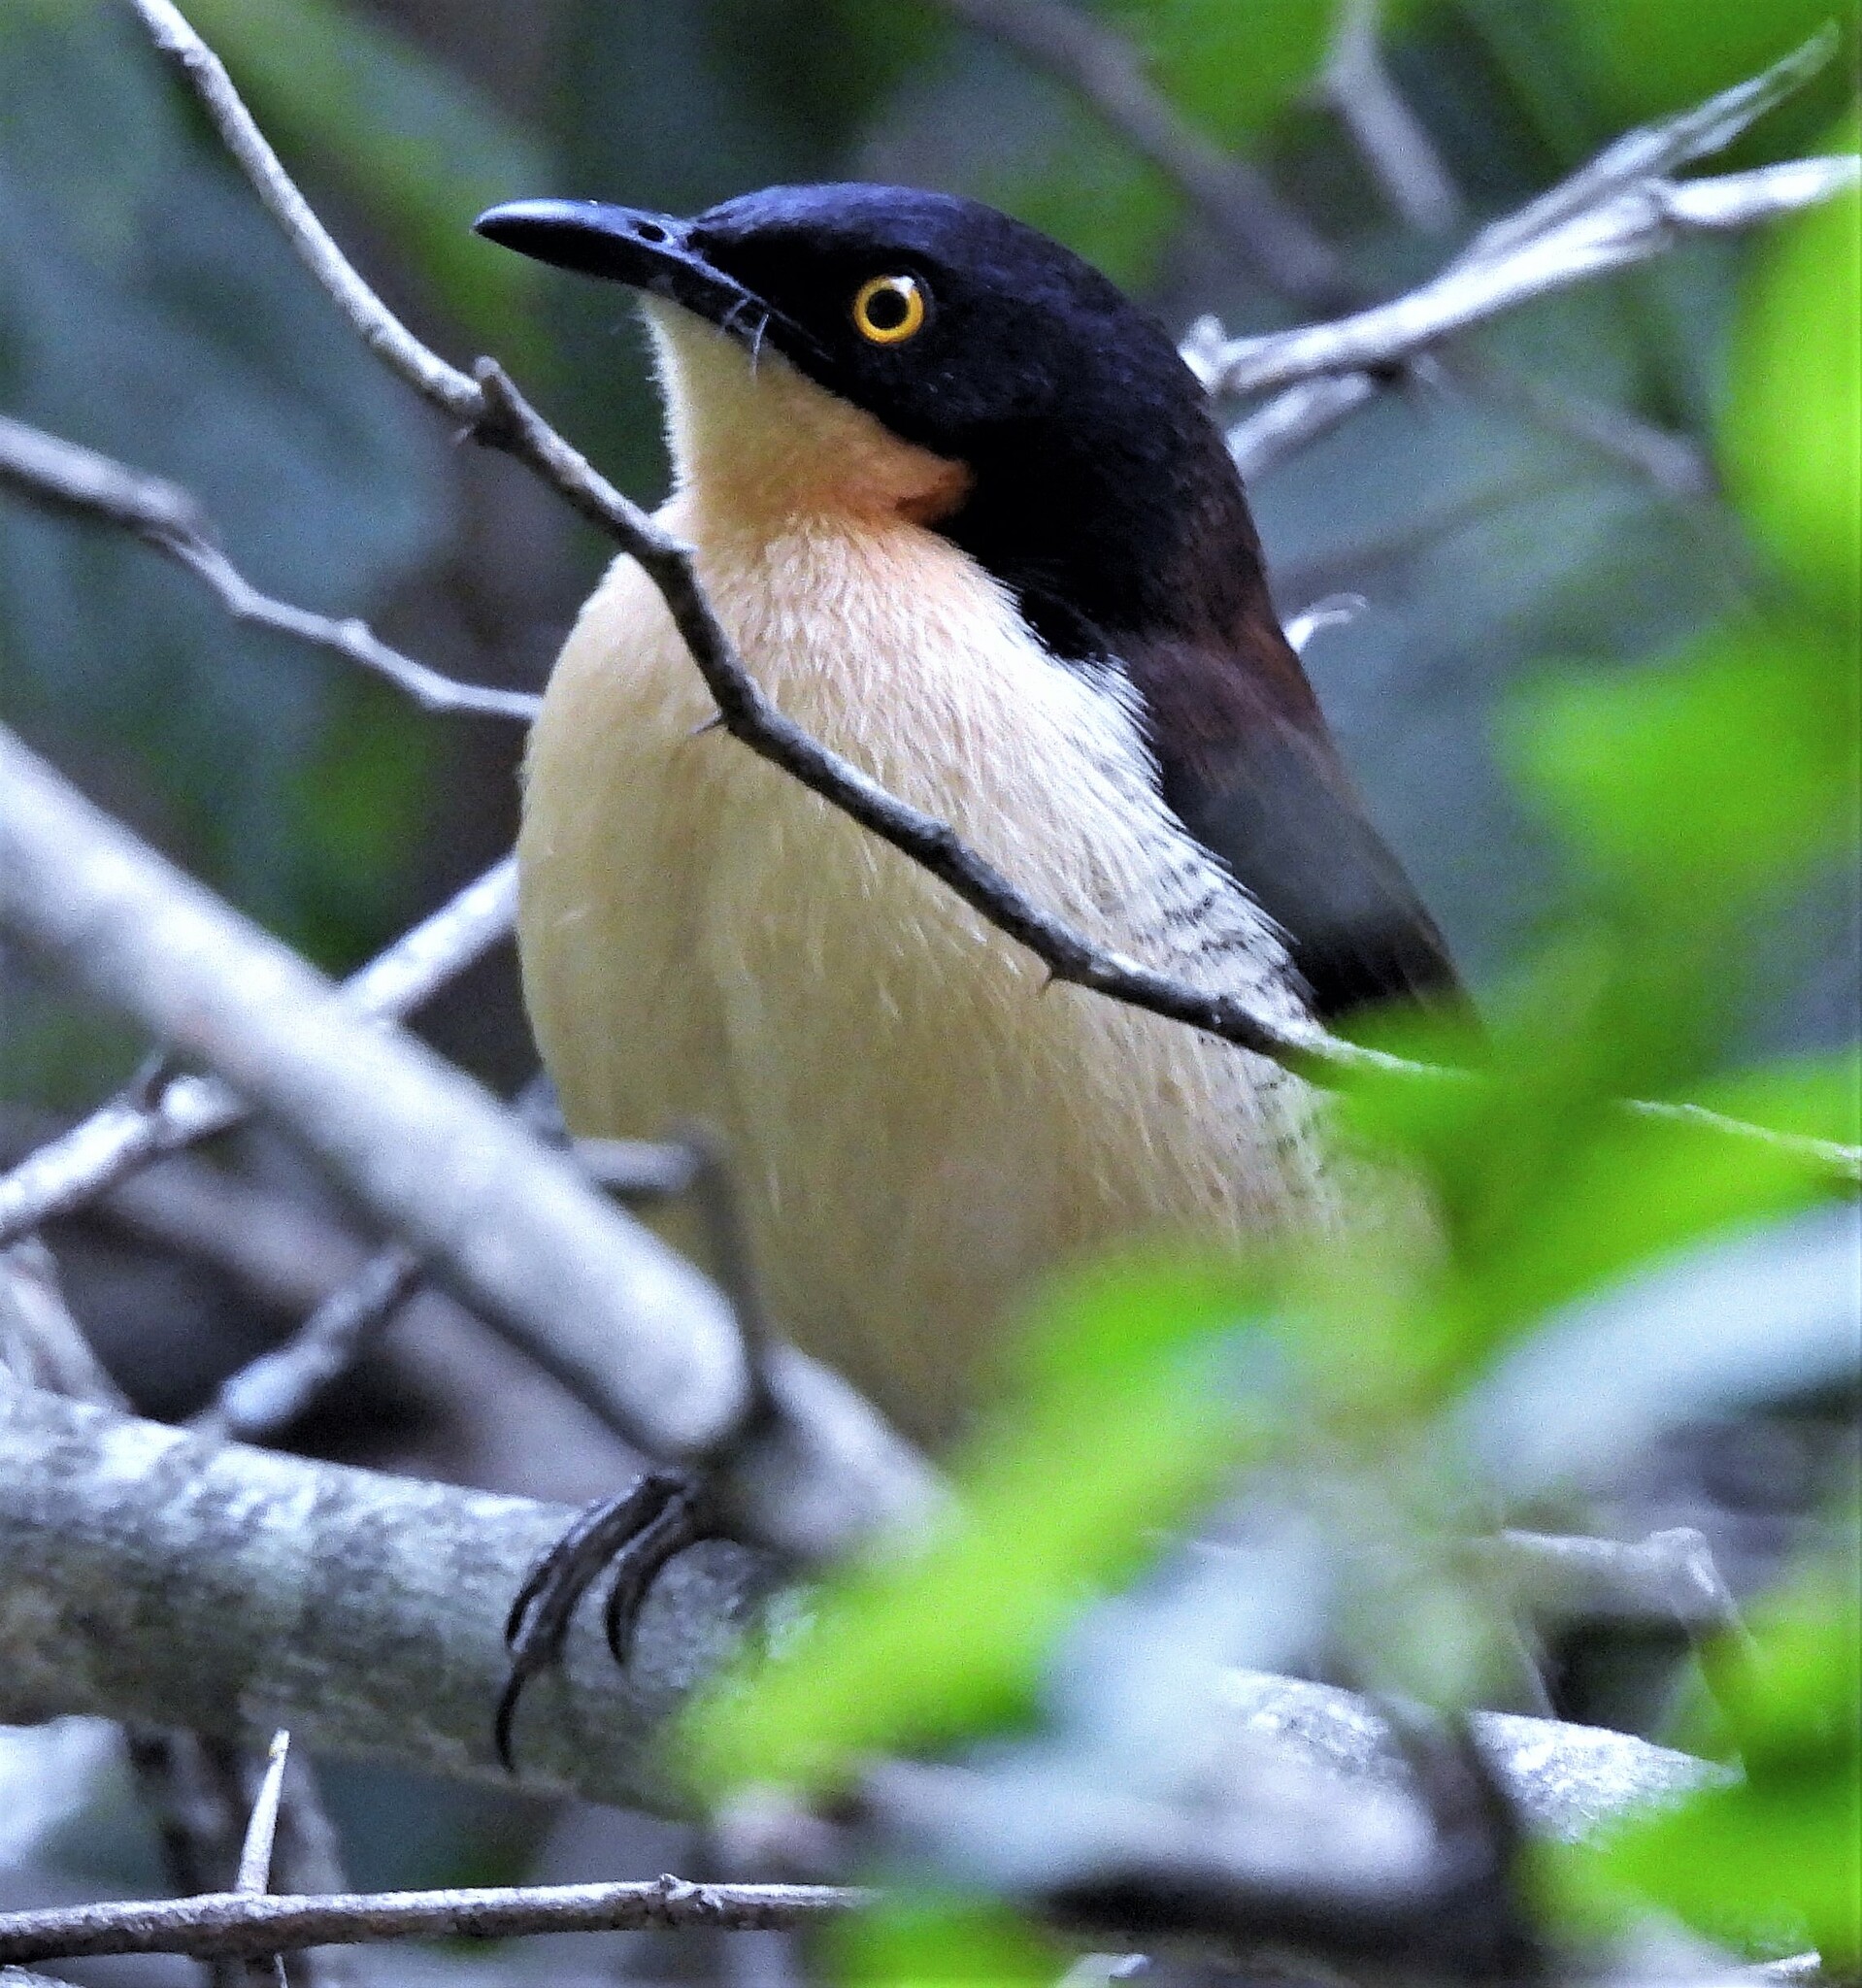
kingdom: Animalia
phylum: Chordata
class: Aves
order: Passeriformes
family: Donacobiidae
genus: Donacobius
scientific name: Donacobius atricapilla
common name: Black-capped donacobius
